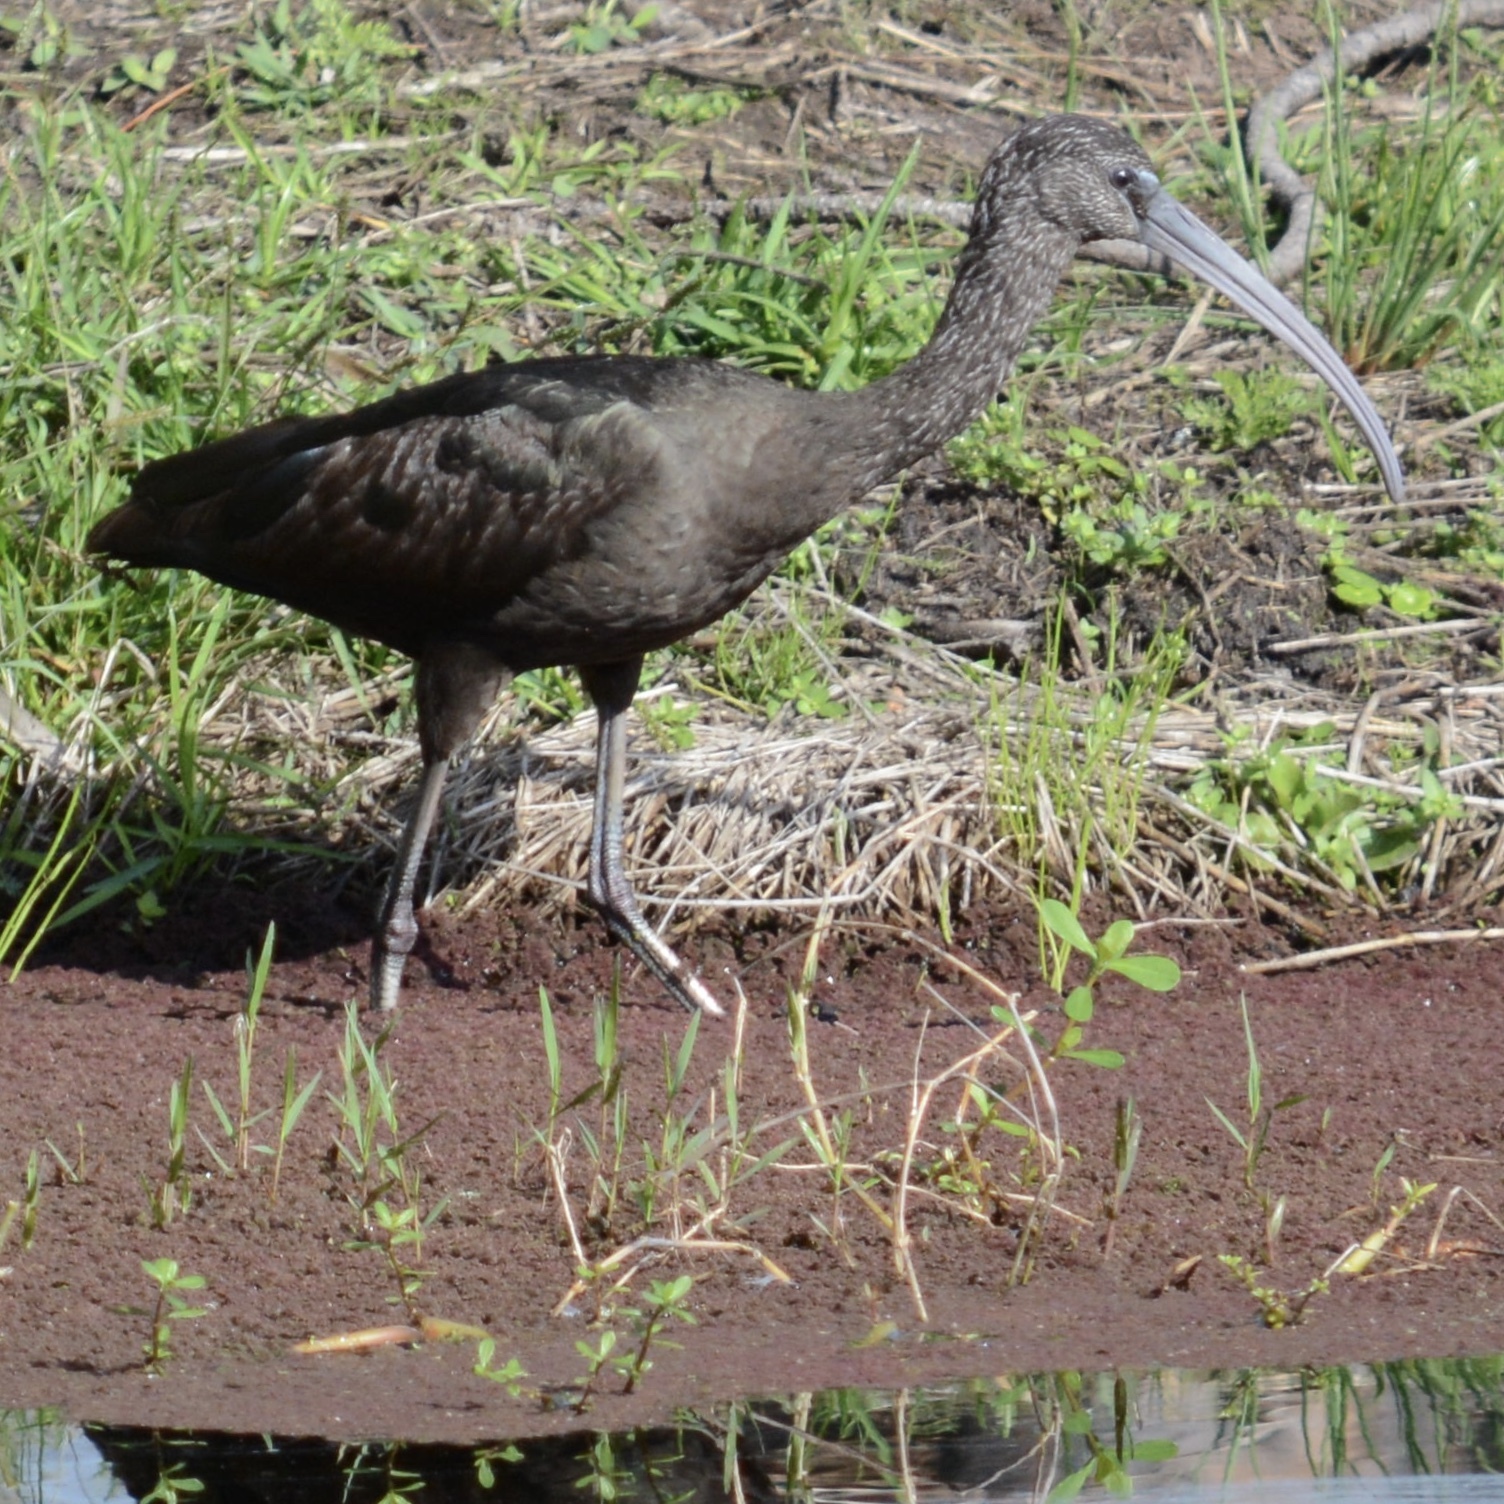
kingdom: Animalia
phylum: Chordata
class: Aves
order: Pelecaniformes
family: Threskiornithidae
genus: Plegadis
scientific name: Plegadis falcinellus
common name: Glossy ibis
